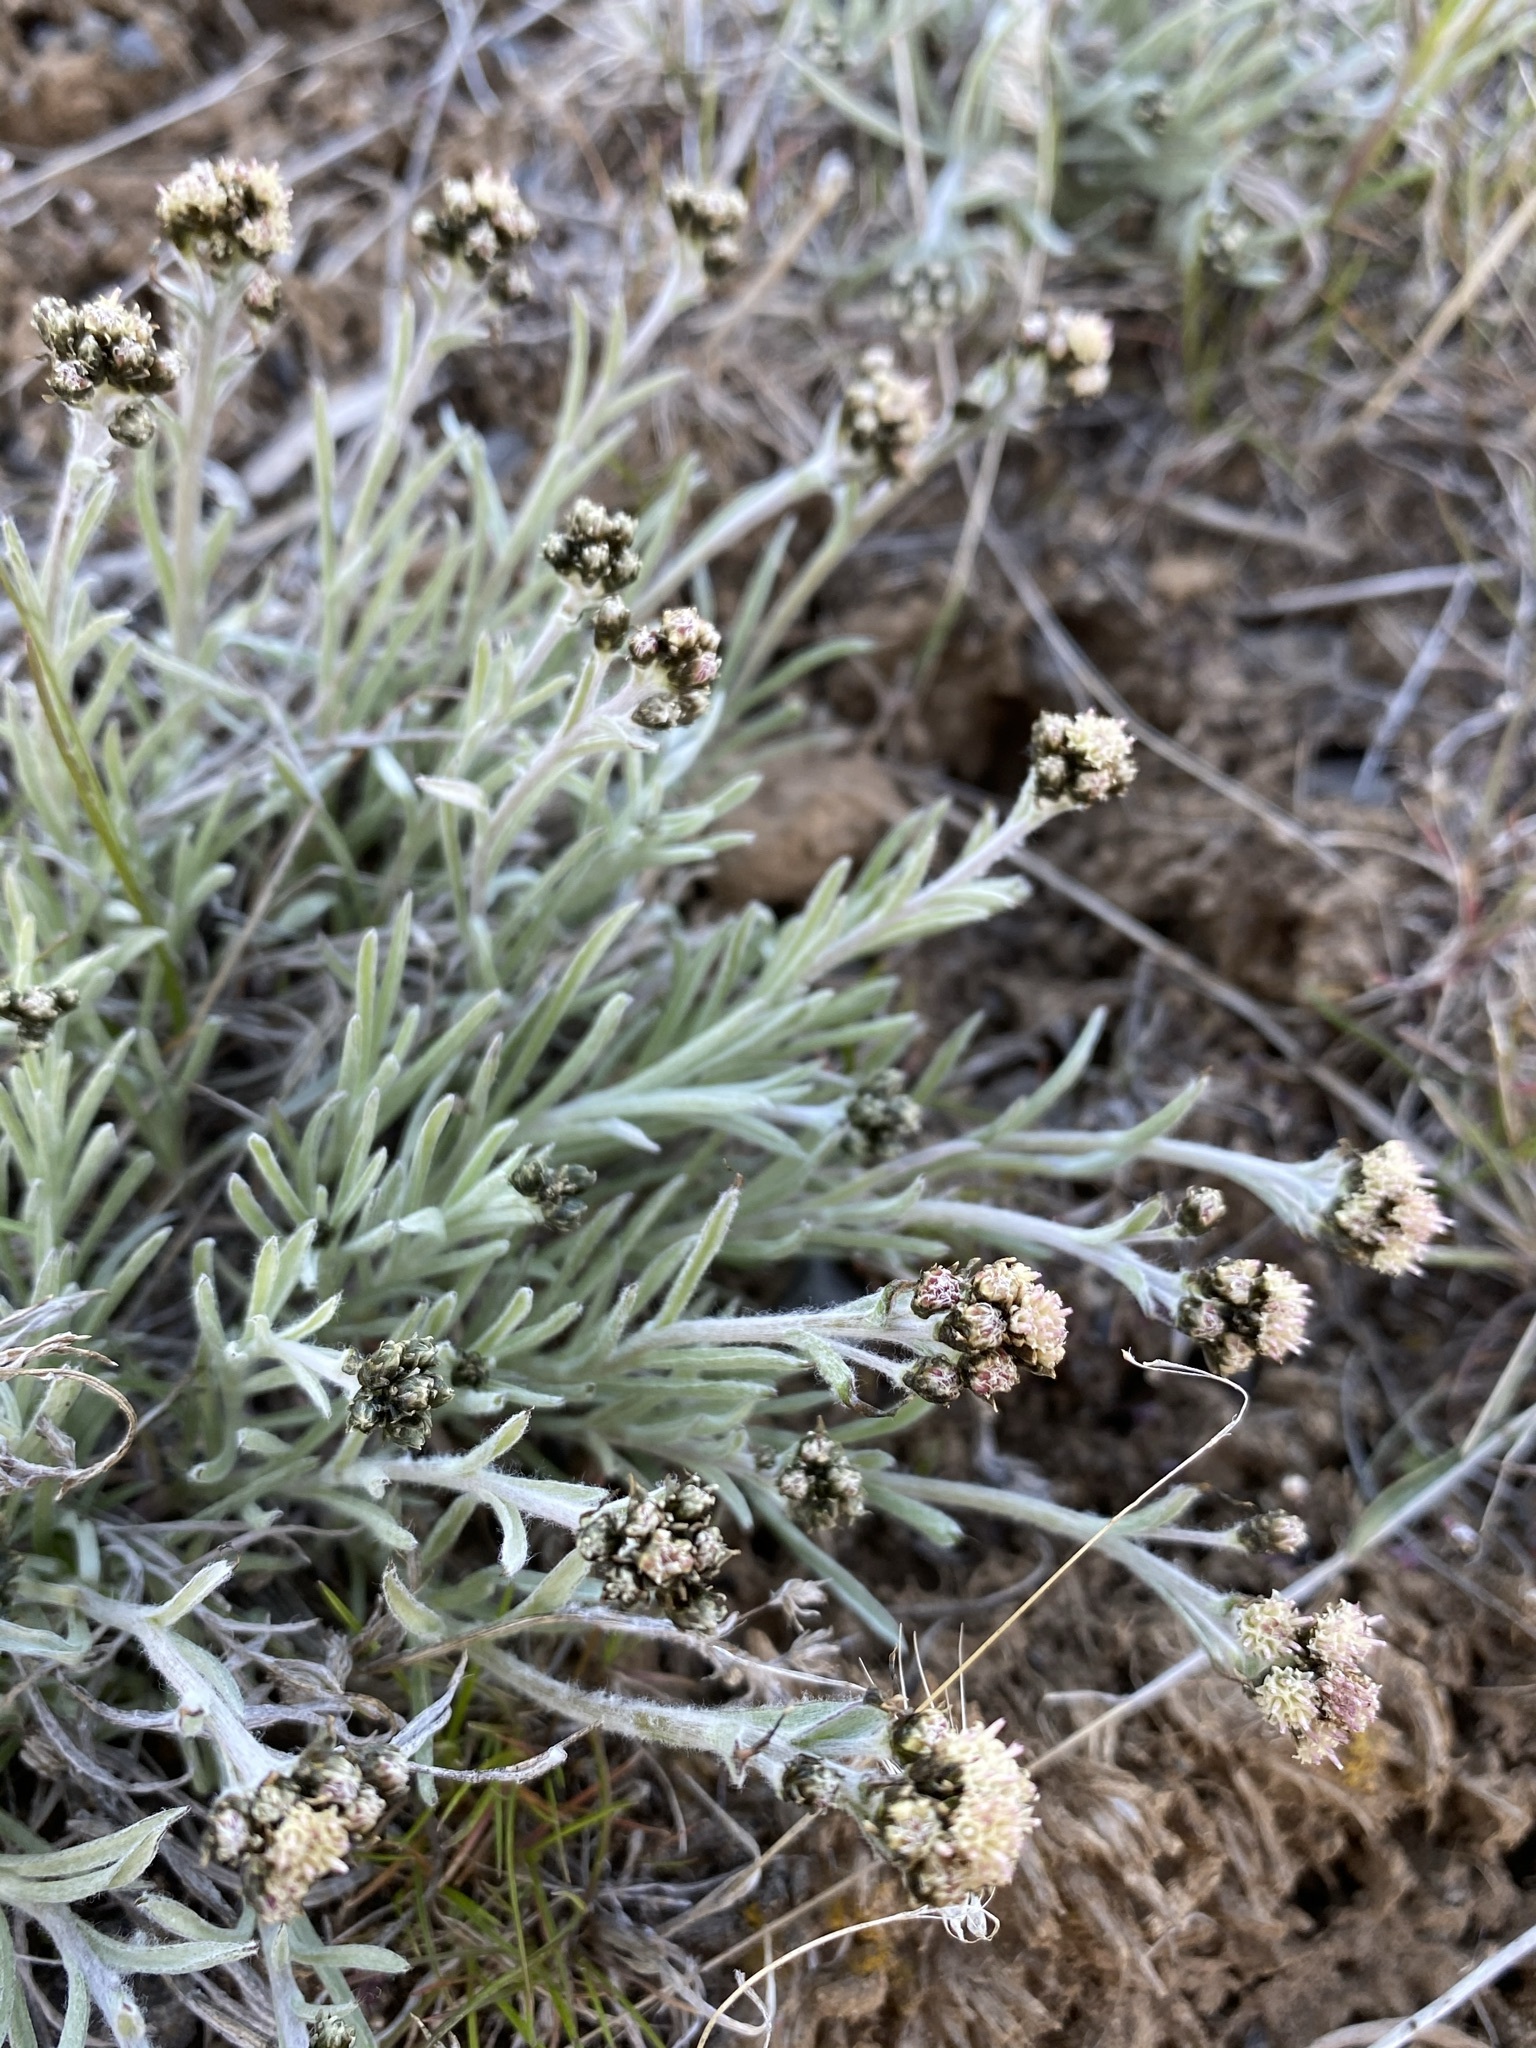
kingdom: Plantae
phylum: Tracheophyta
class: Magnoliopsida
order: Asterales
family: Asteraceae
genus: Antennaria
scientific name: Antennaria stenophylla
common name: Narrow-leaved pussytoes
